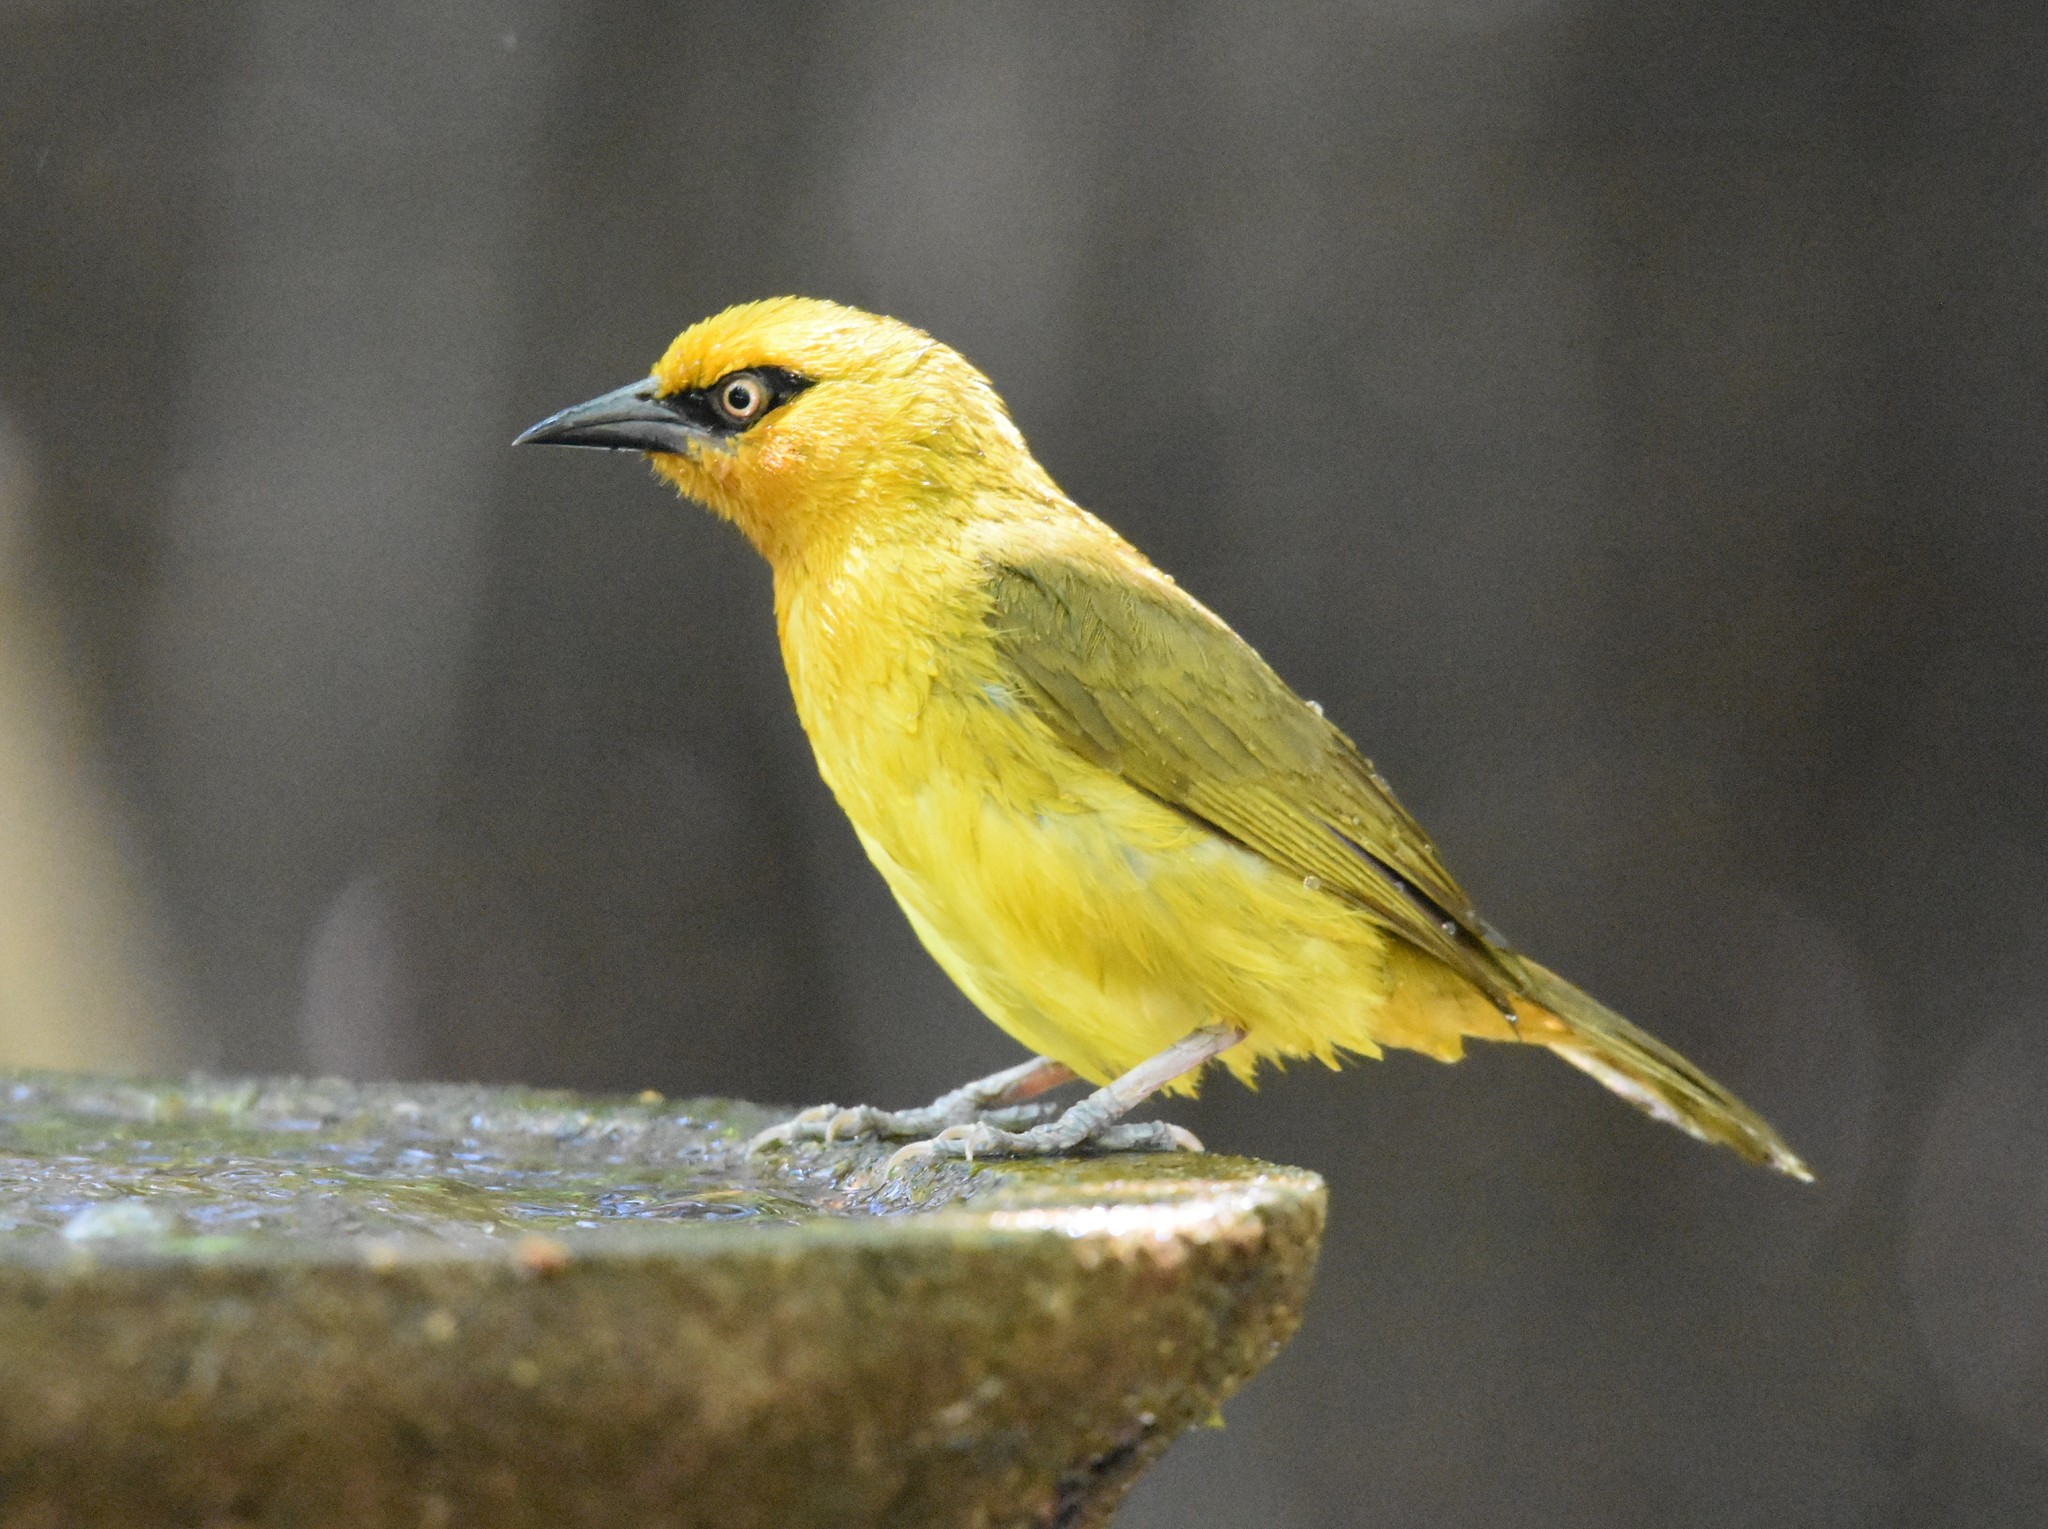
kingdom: Animalia
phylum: Chordata
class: Aves
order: Passeriformes
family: Ploceidae
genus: Ploceus
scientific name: Ploceus ocularis
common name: Spectacled weaver
